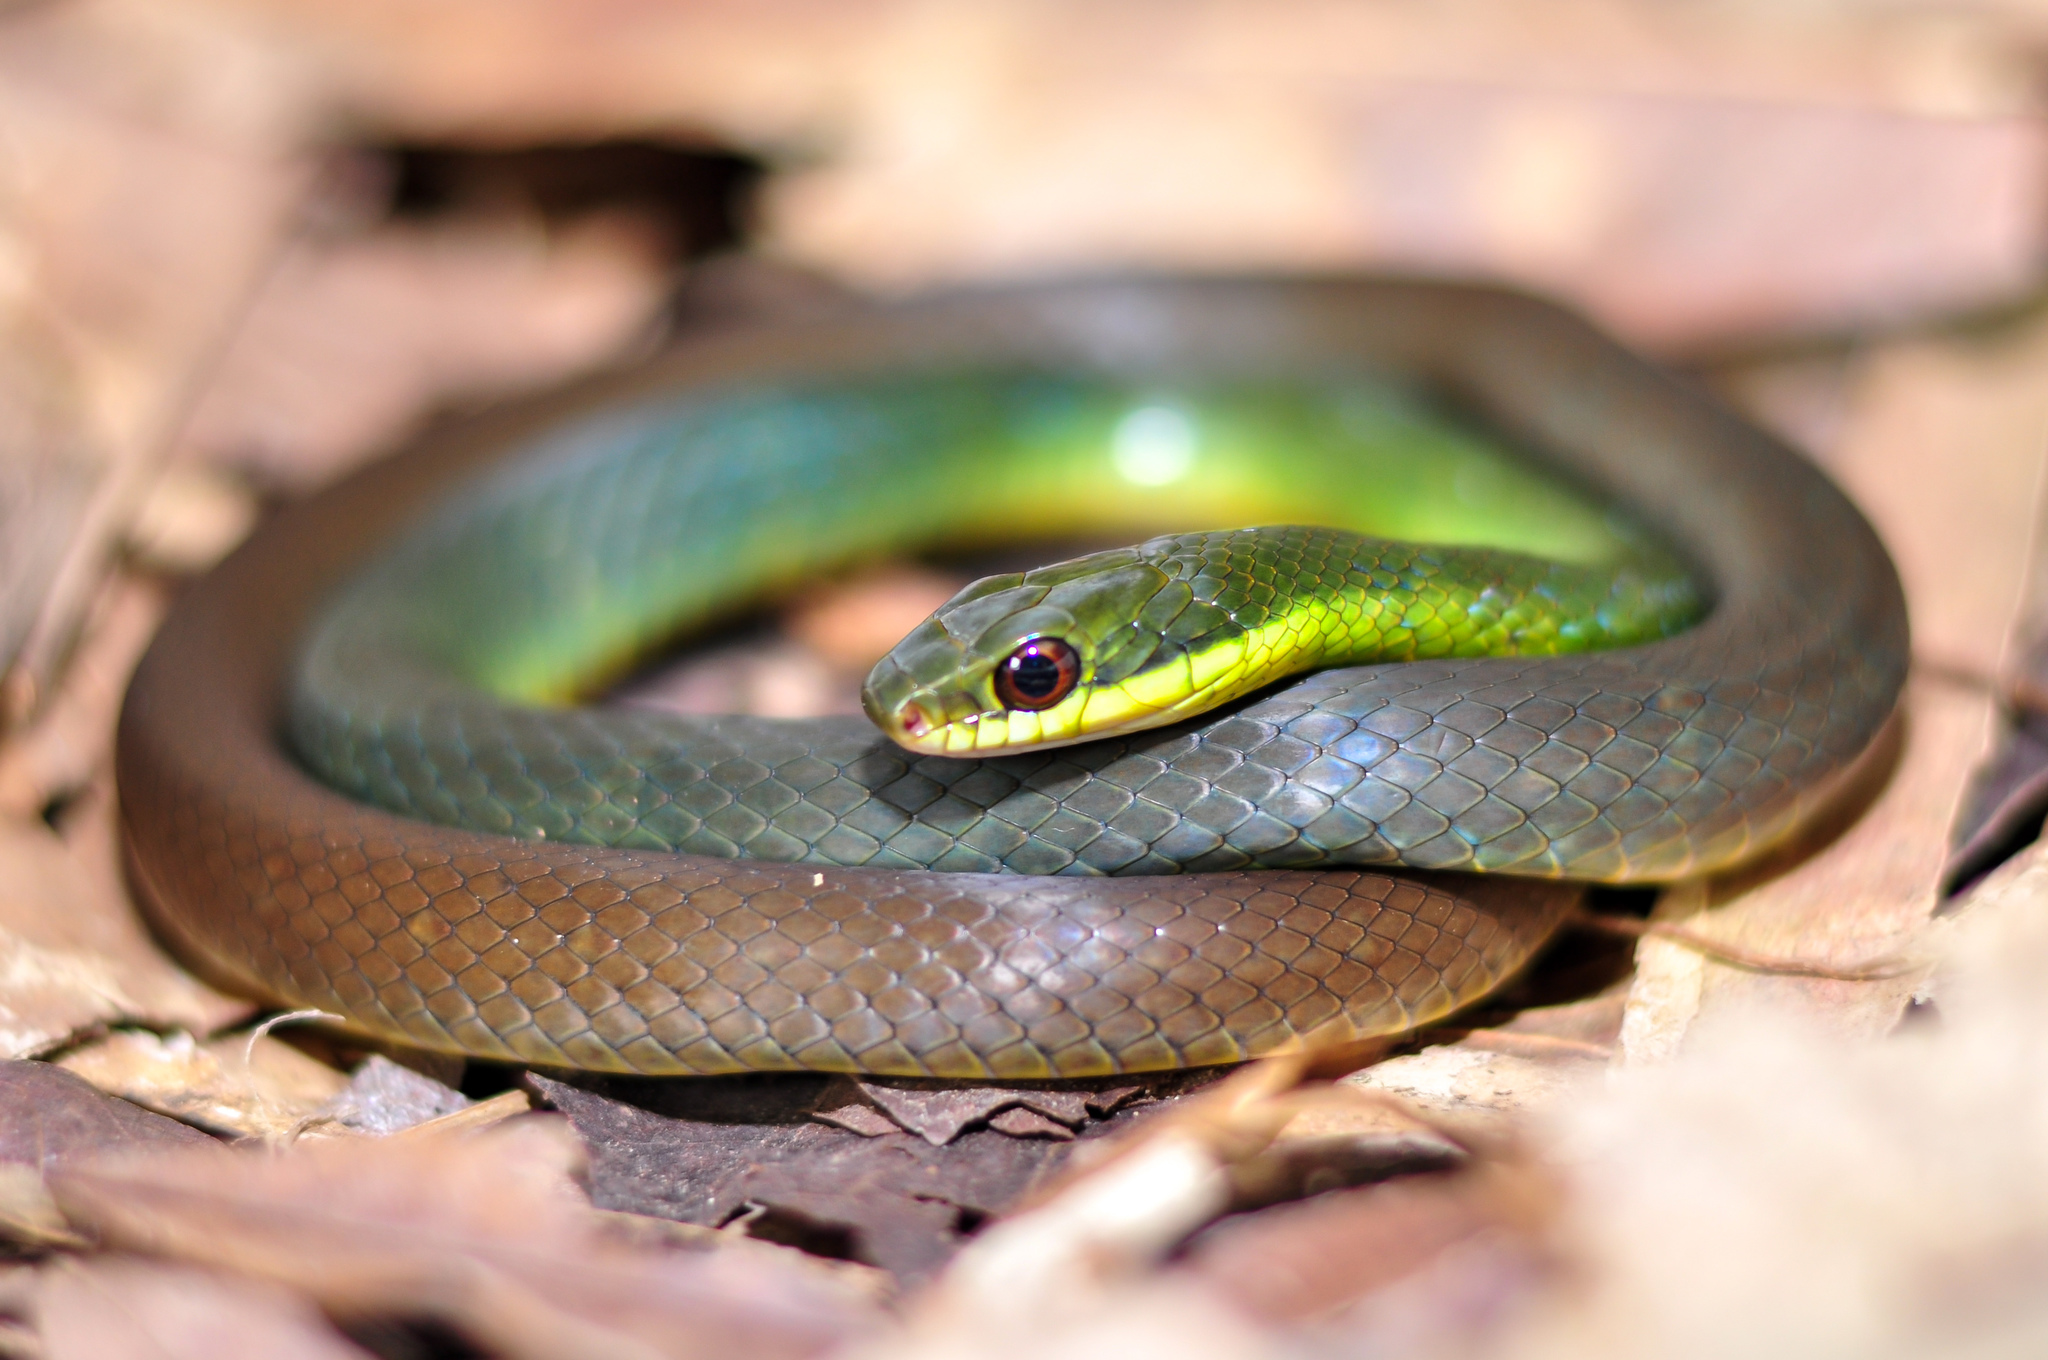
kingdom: Animalia
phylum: Chordata
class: Squamata
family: Colubridae
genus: Drymoluber
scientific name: Drymoluber dichrous
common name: Northern woodland racer
